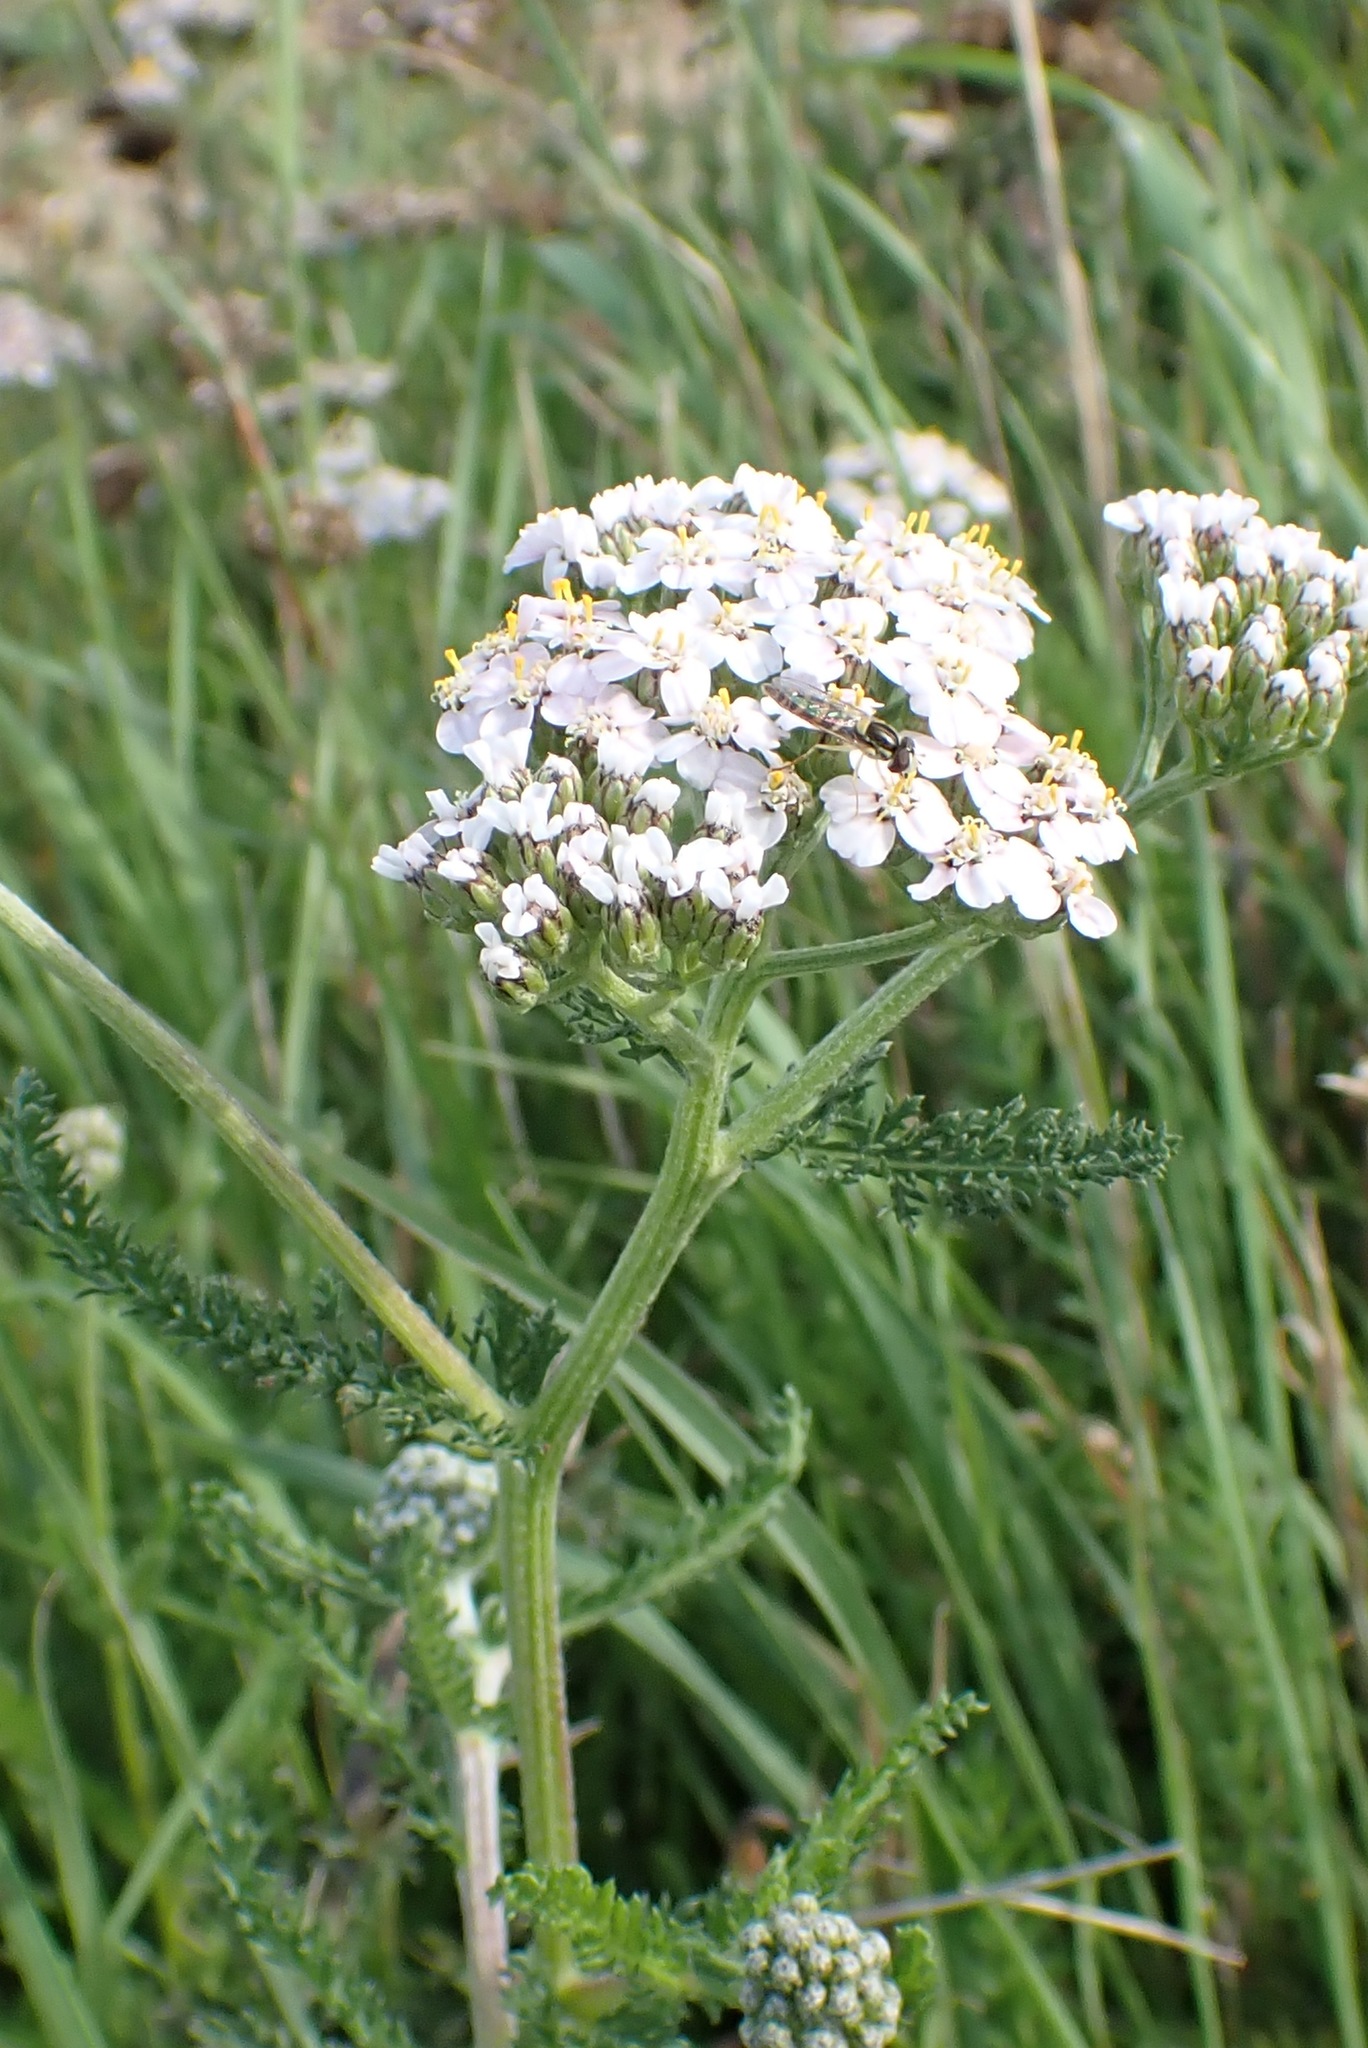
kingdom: Plantae
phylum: Tracheophyta
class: Magnoliopsida
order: Asterales
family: Asteraceae
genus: Achillea
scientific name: Achillea millefolium
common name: Yarrow
